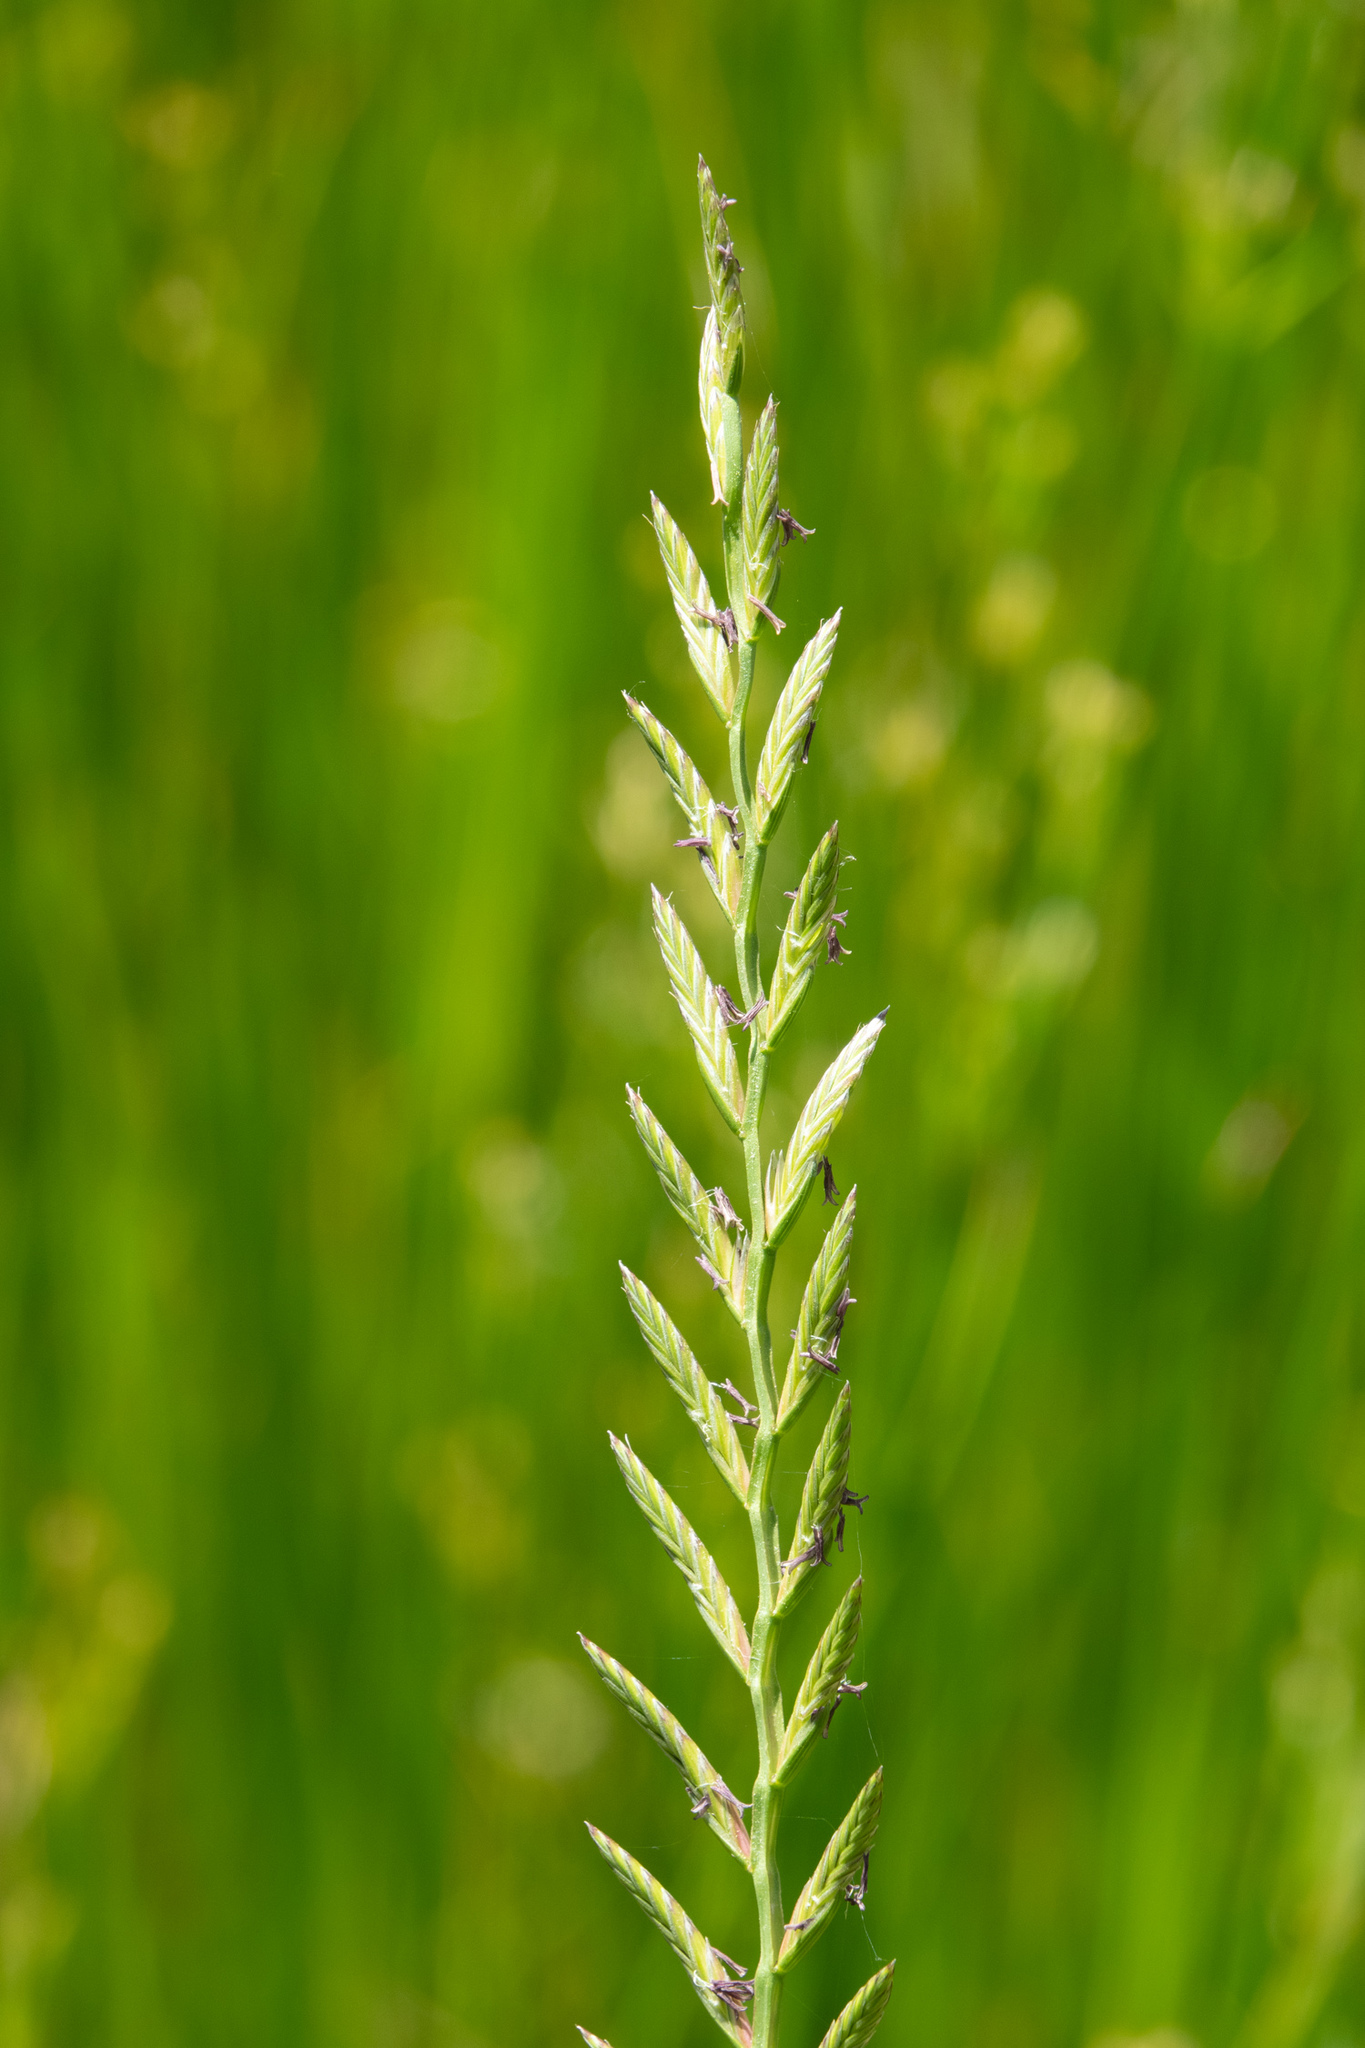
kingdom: Plantae
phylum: Tracheophyta
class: Liliopsida
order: Poales
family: Poaceae
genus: Lolium
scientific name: Lolium perenne
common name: Perennial ryegrass
